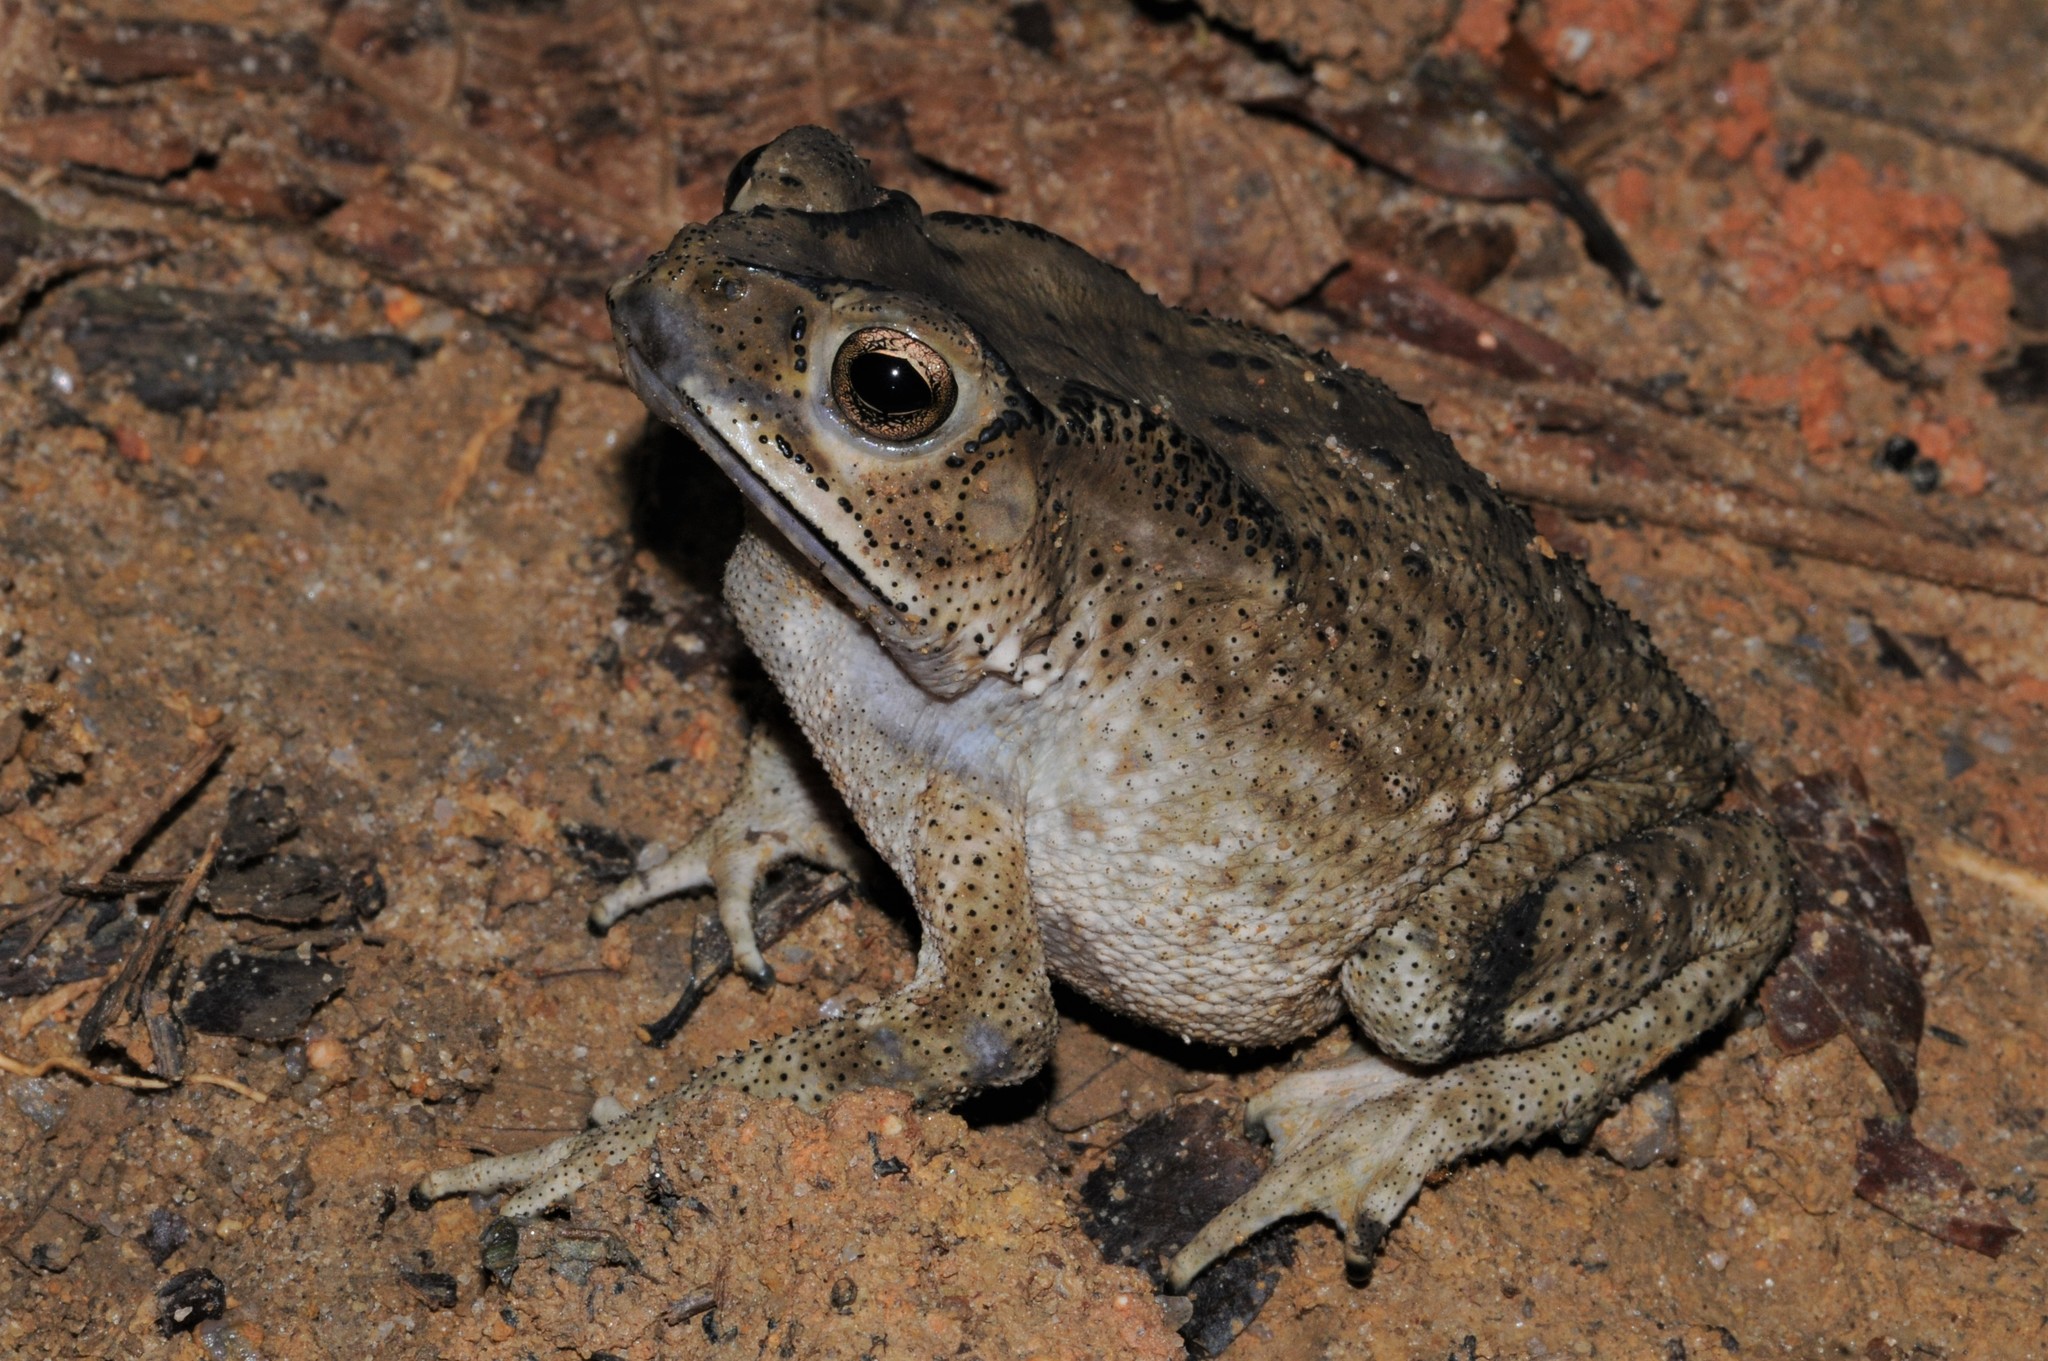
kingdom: Animalia
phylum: Chordata
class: Amphibia
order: Anura
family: Bufonidae
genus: Duttaphrynus
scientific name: Duttaphrynus melanostictus
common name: Common sunda toad
